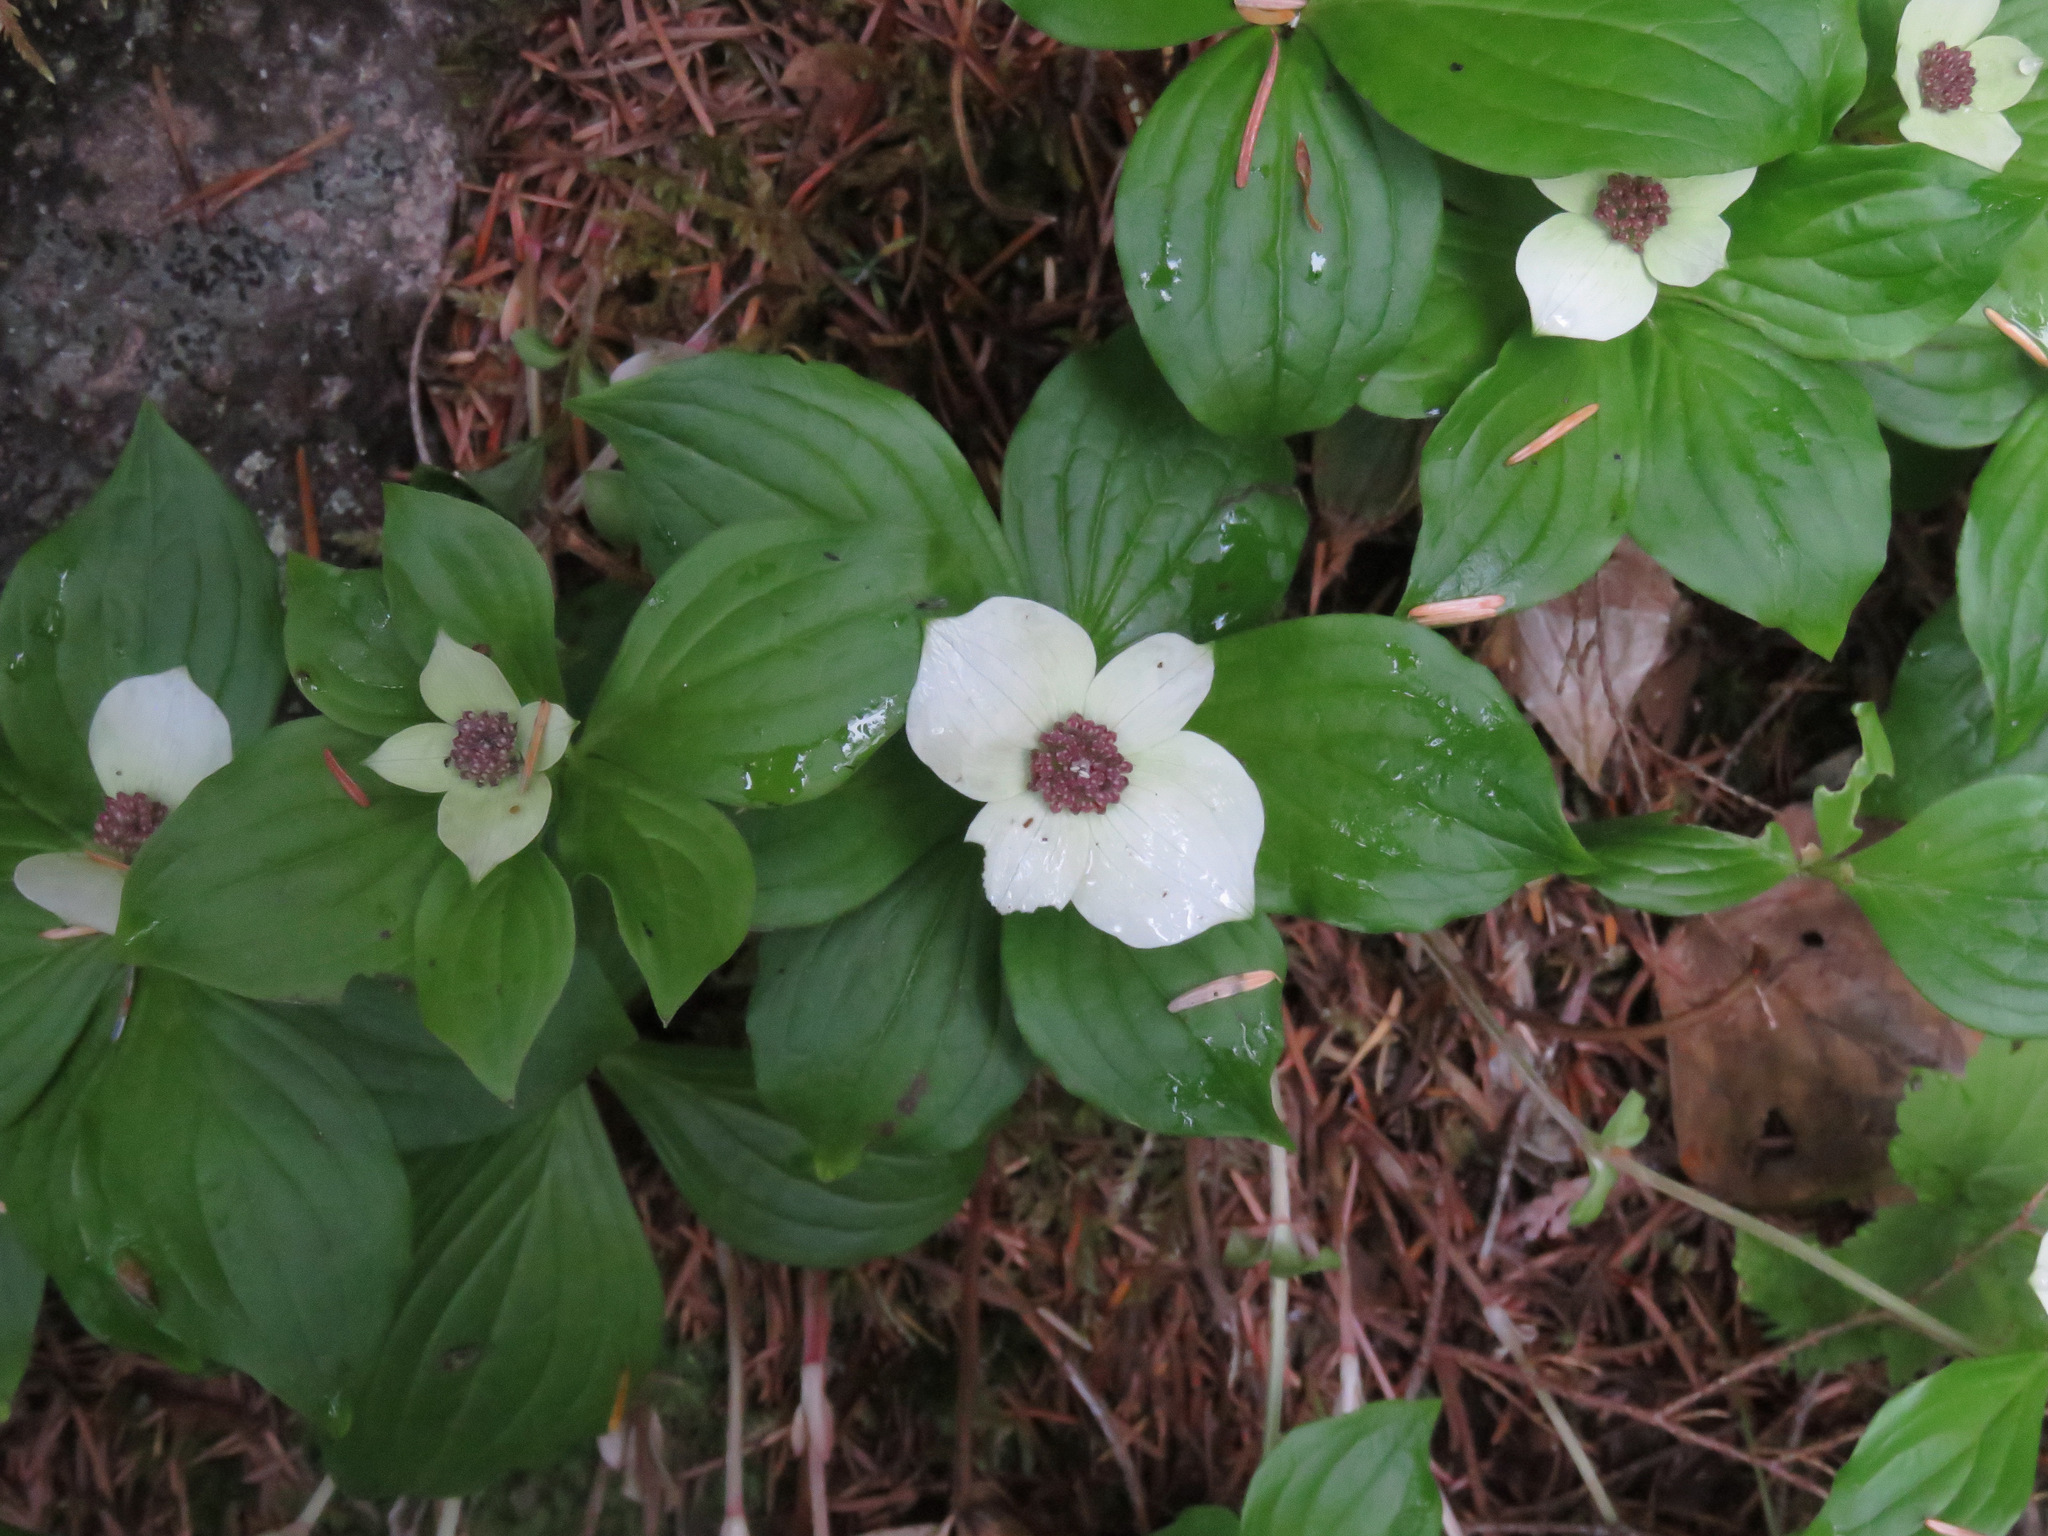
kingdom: Plantae
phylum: Tracheophyta
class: Magnoliopsida
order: Cornales
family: Cornaceae
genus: Cornus
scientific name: Cornus unalaschkensis
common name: Alaska bunchberry
